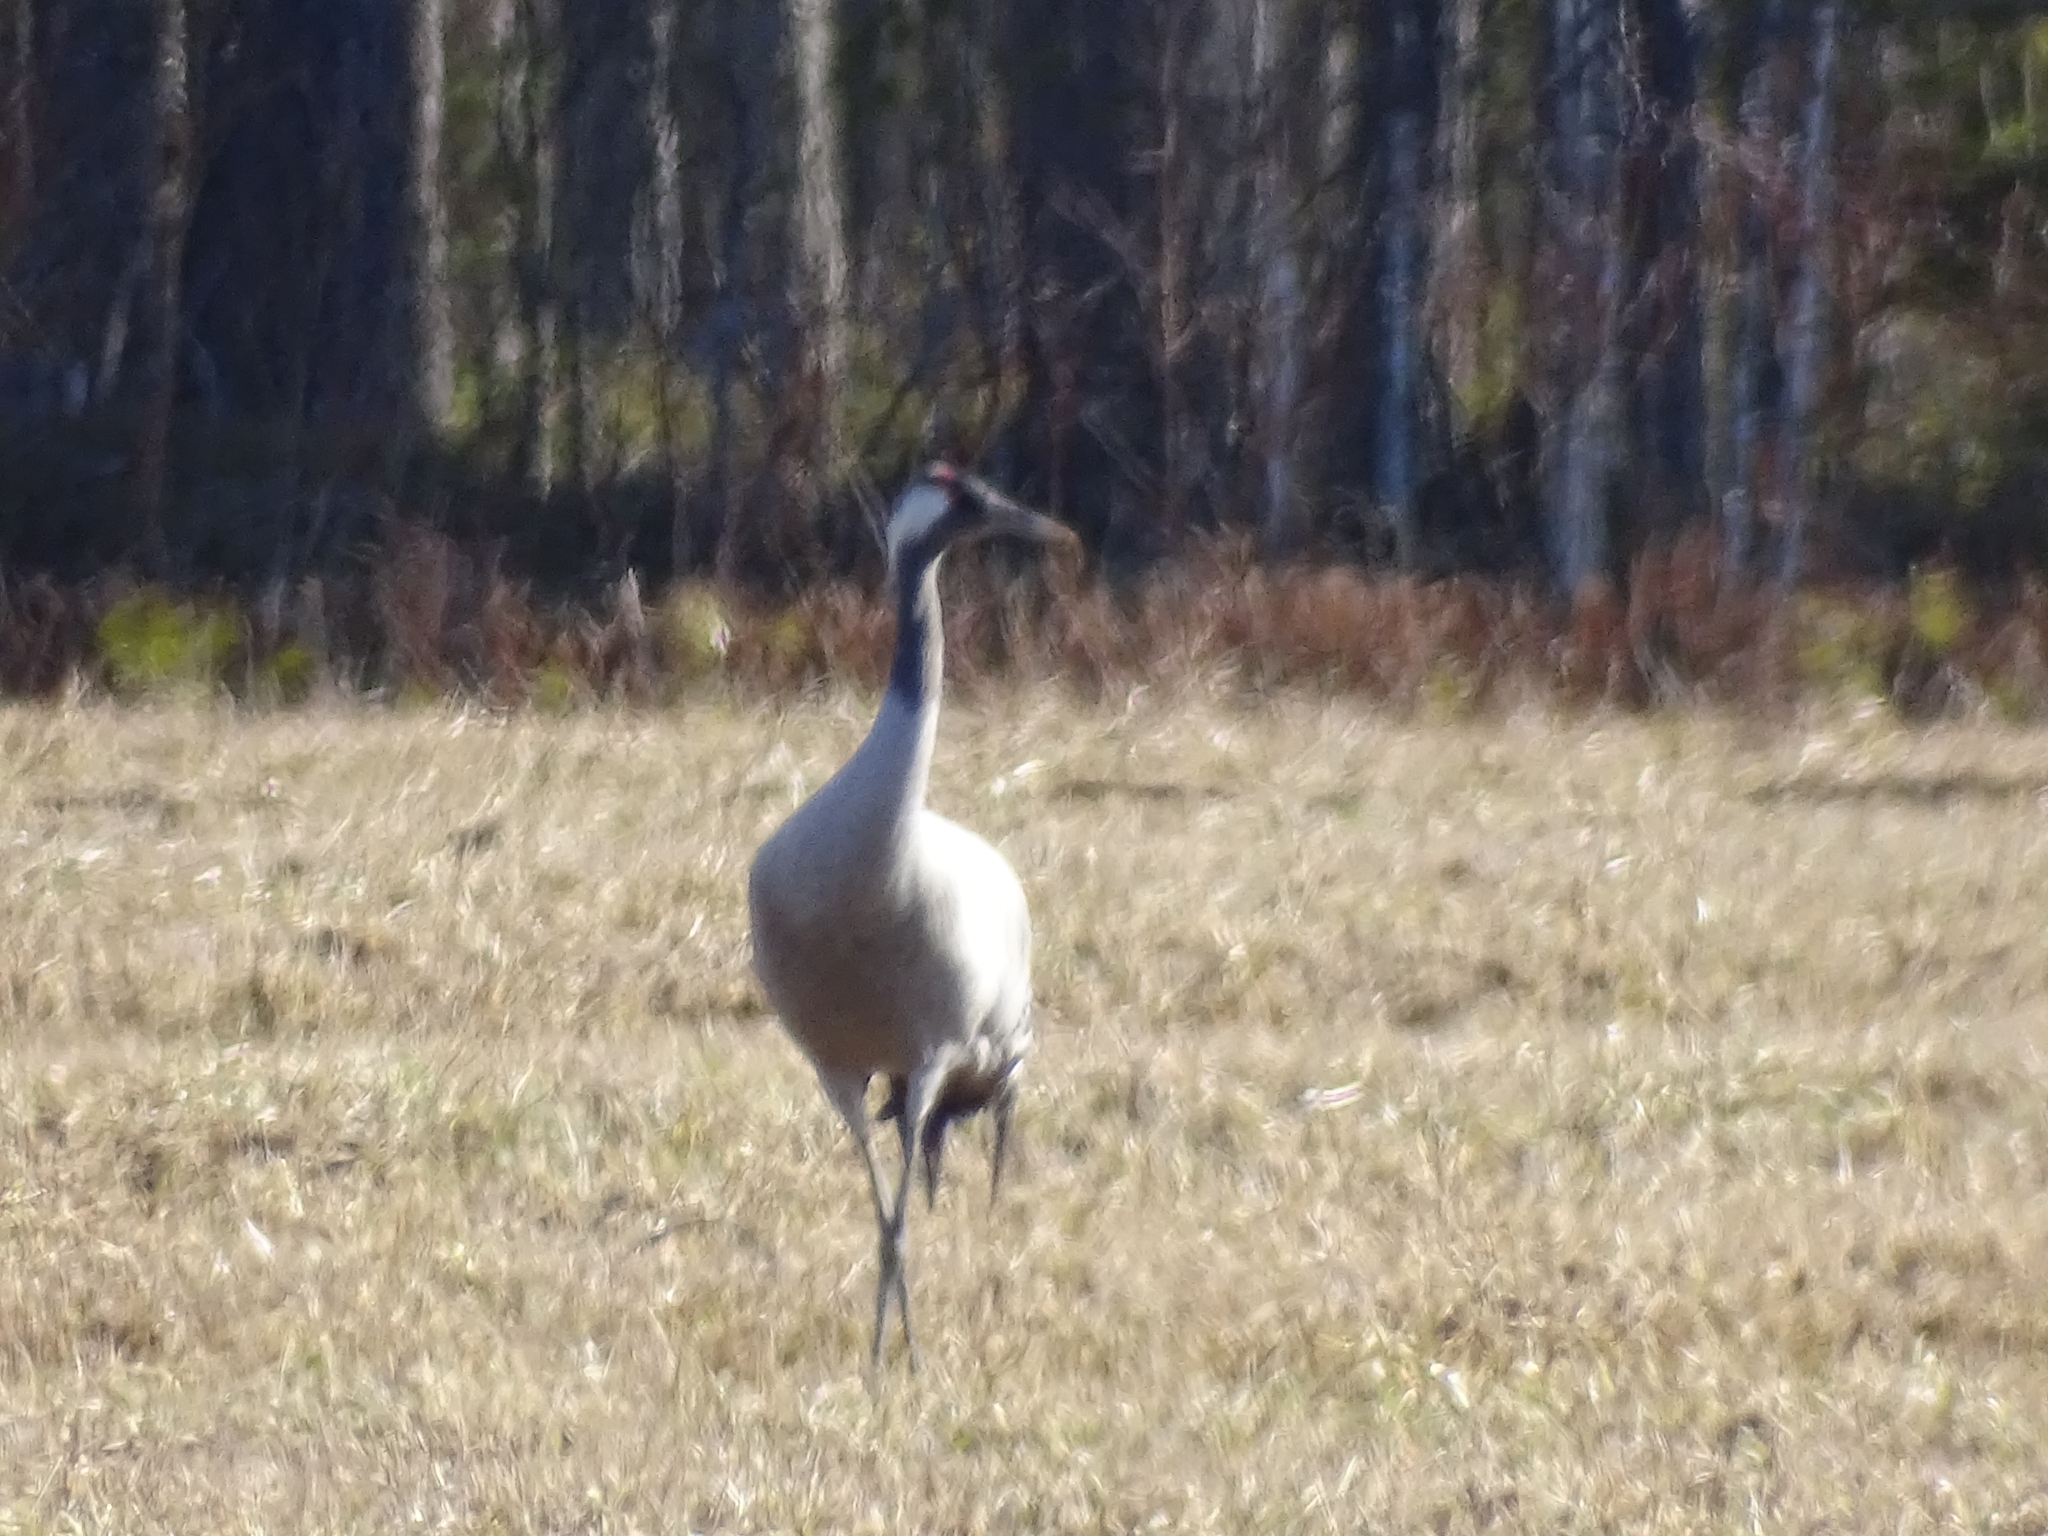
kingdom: Animalia
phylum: Chordata
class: Aves
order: Gruiformes
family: Gruidae
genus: Grus
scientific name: Grus grus
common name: Common crane
